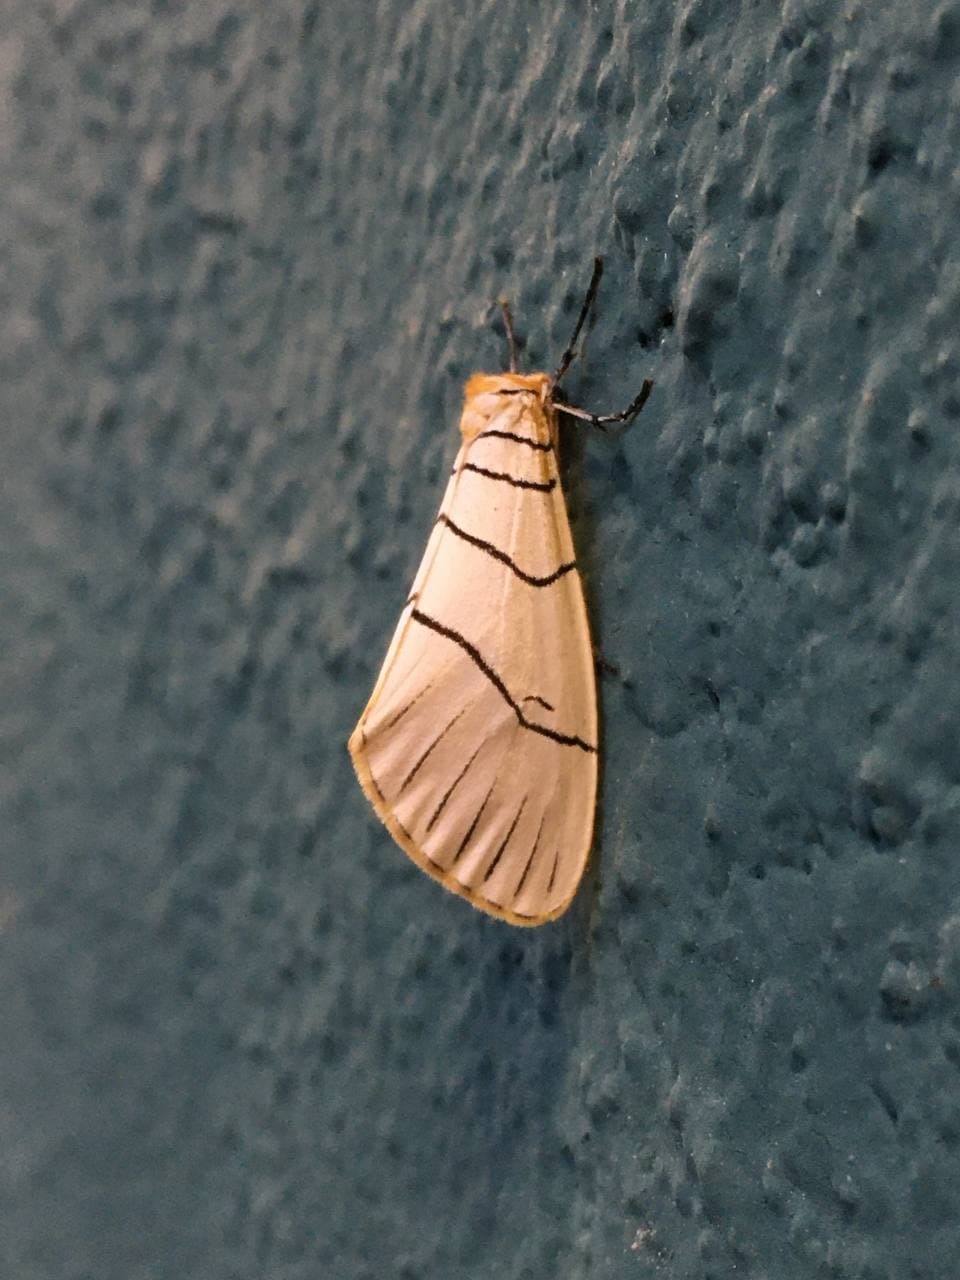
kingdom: Animalia
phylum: Arthropoda
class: Insecta
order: Lepidoptera
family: Doidae
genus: Leuculodes
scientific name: Leuculodes
